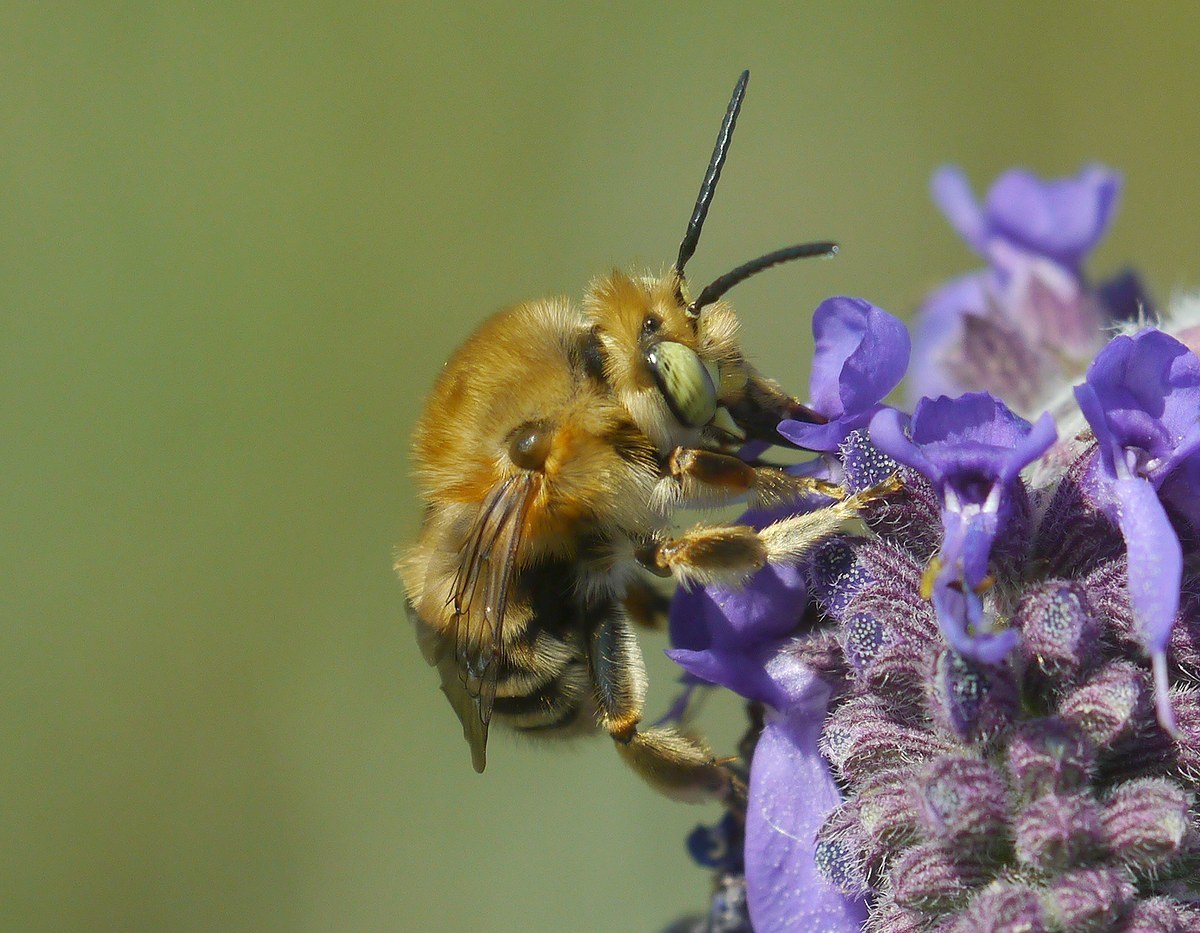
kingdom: Animalia
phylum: Arthropoda
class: Insecta
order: Hymenoptera
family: Apidae
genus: Habropoda
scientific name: Habropoda zonatula
